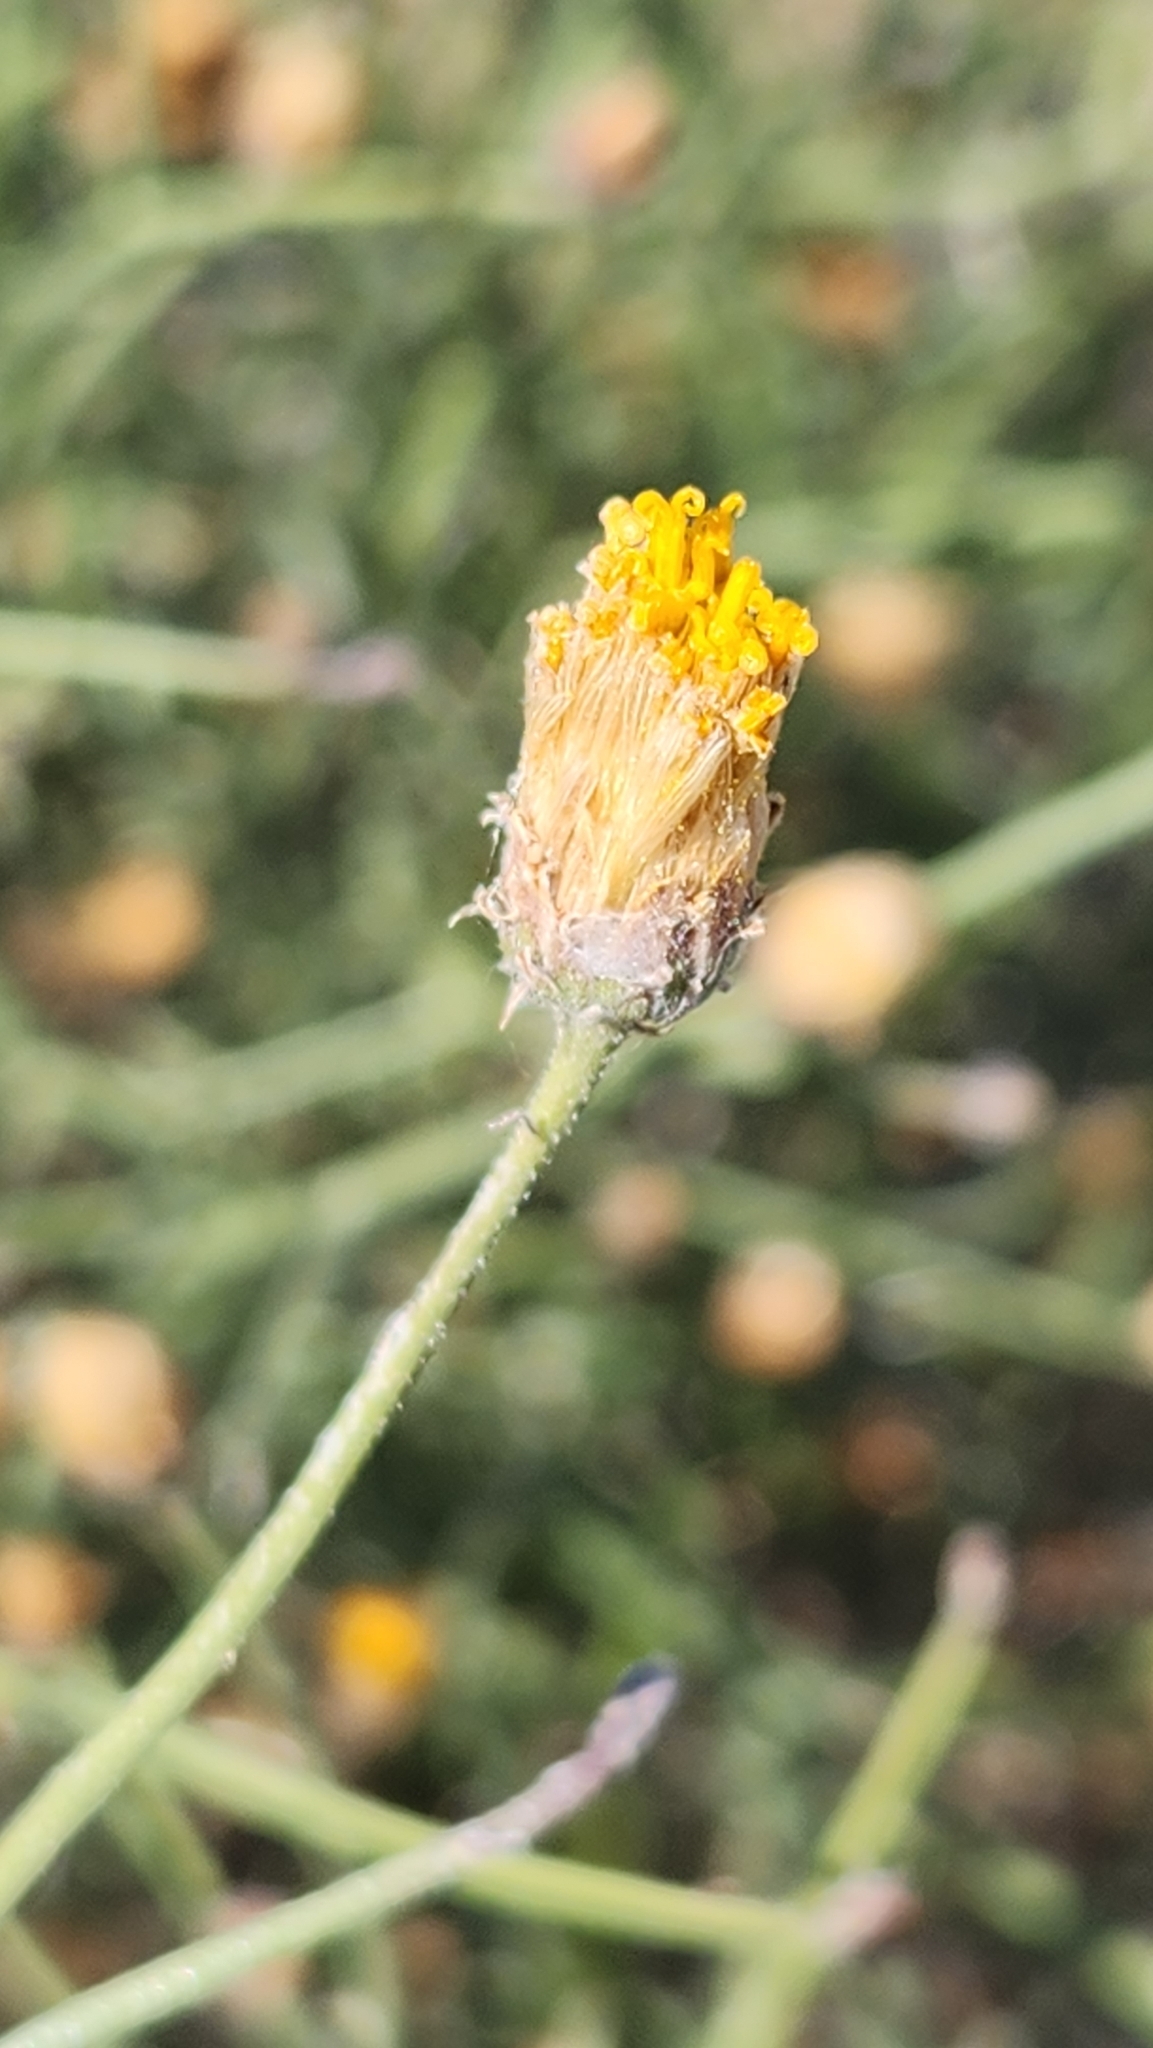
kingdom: Plantae
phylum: Tracheophyta
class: Magnoliopsida
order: Asterales
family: Asteraceae
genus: Bebbia
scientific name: Bebbia juncea
